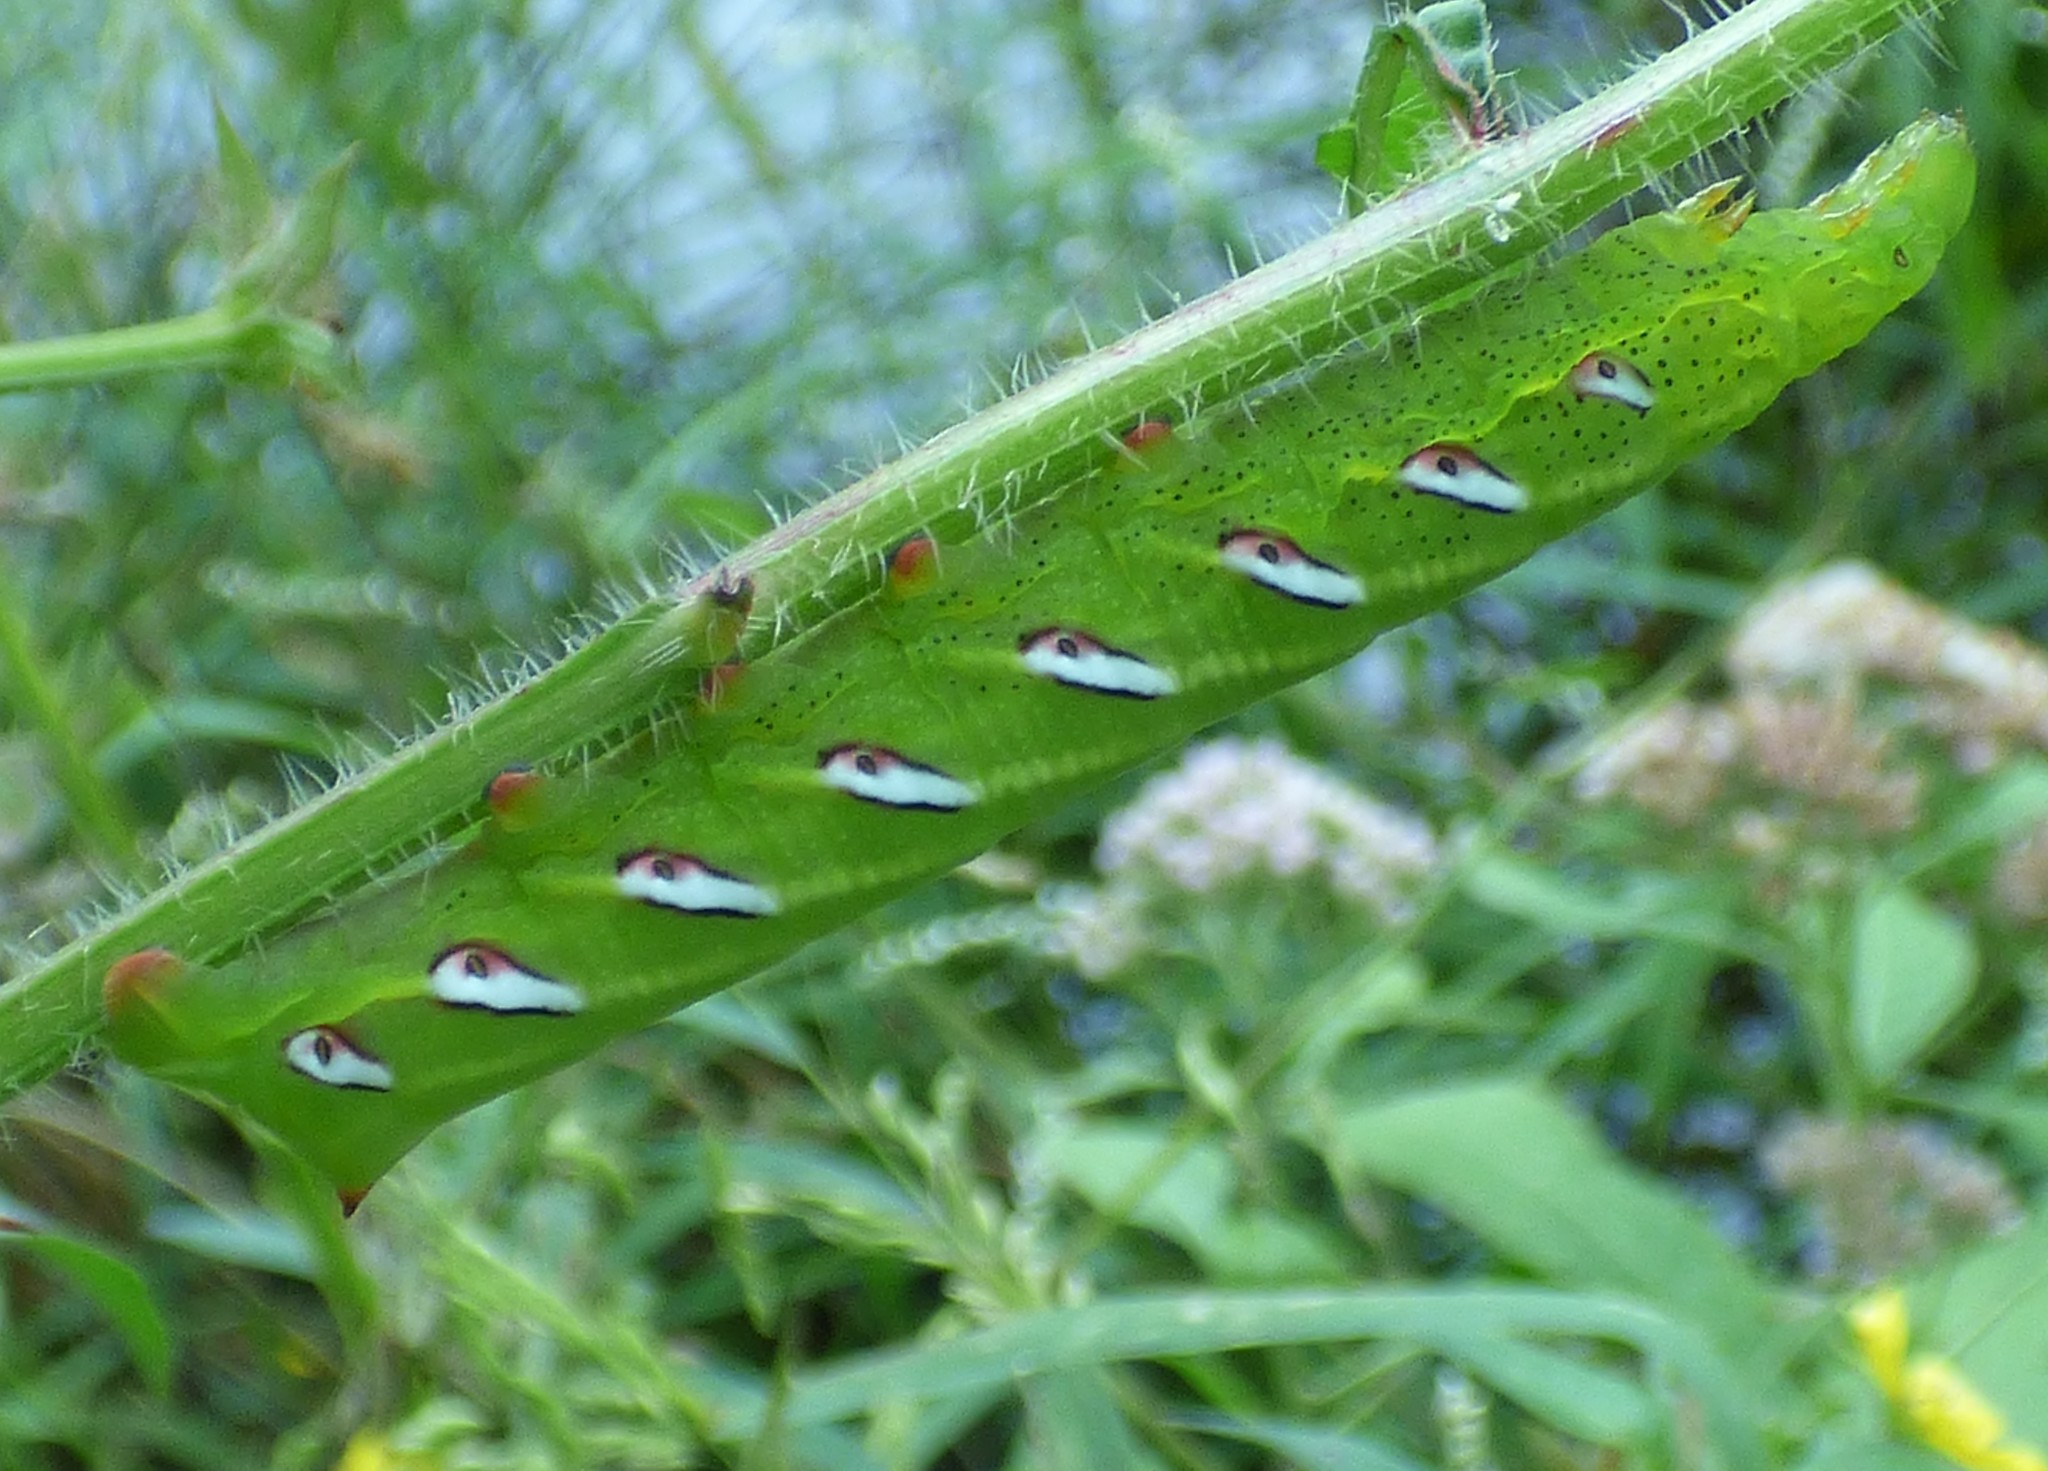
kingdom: Animalia
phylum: Arthropoda
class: Insecta
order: Lepidoptera
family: Sphingidae
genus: Eumorpha
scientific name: Eumorpha fasciatus
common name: Banded sphinx
